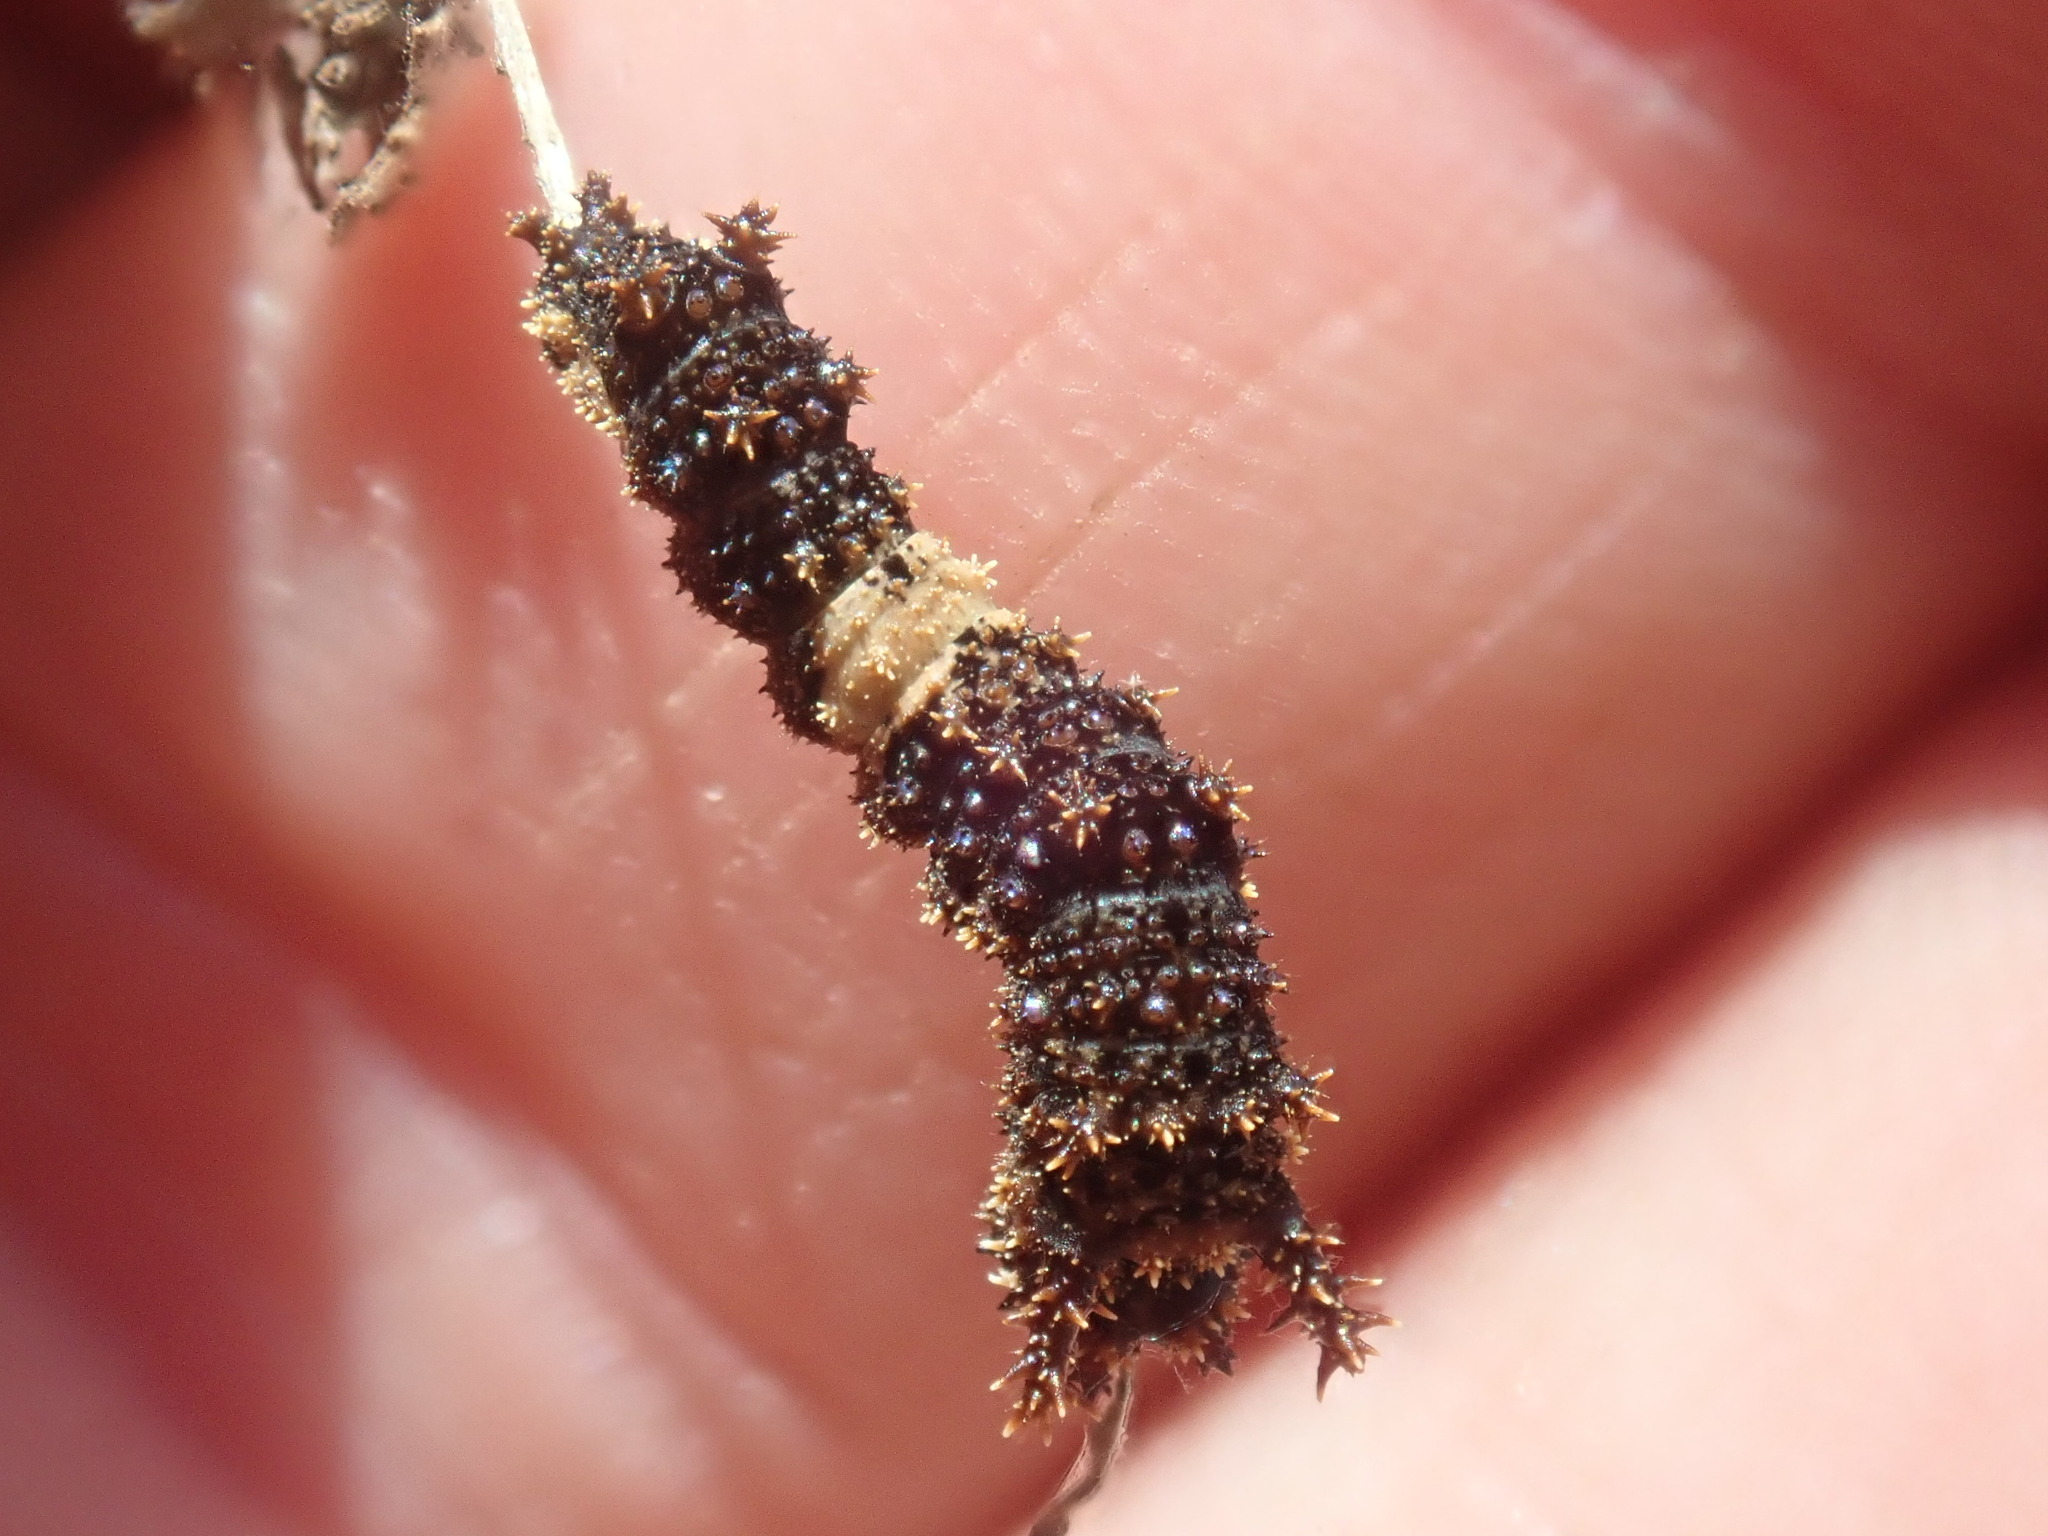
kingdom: Animalia
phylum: Arthropoda
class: Insecta
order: Lepidoptera
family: Nymphalidae
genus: Limenitis
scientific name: Limenitis archippus
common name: Viceroy
